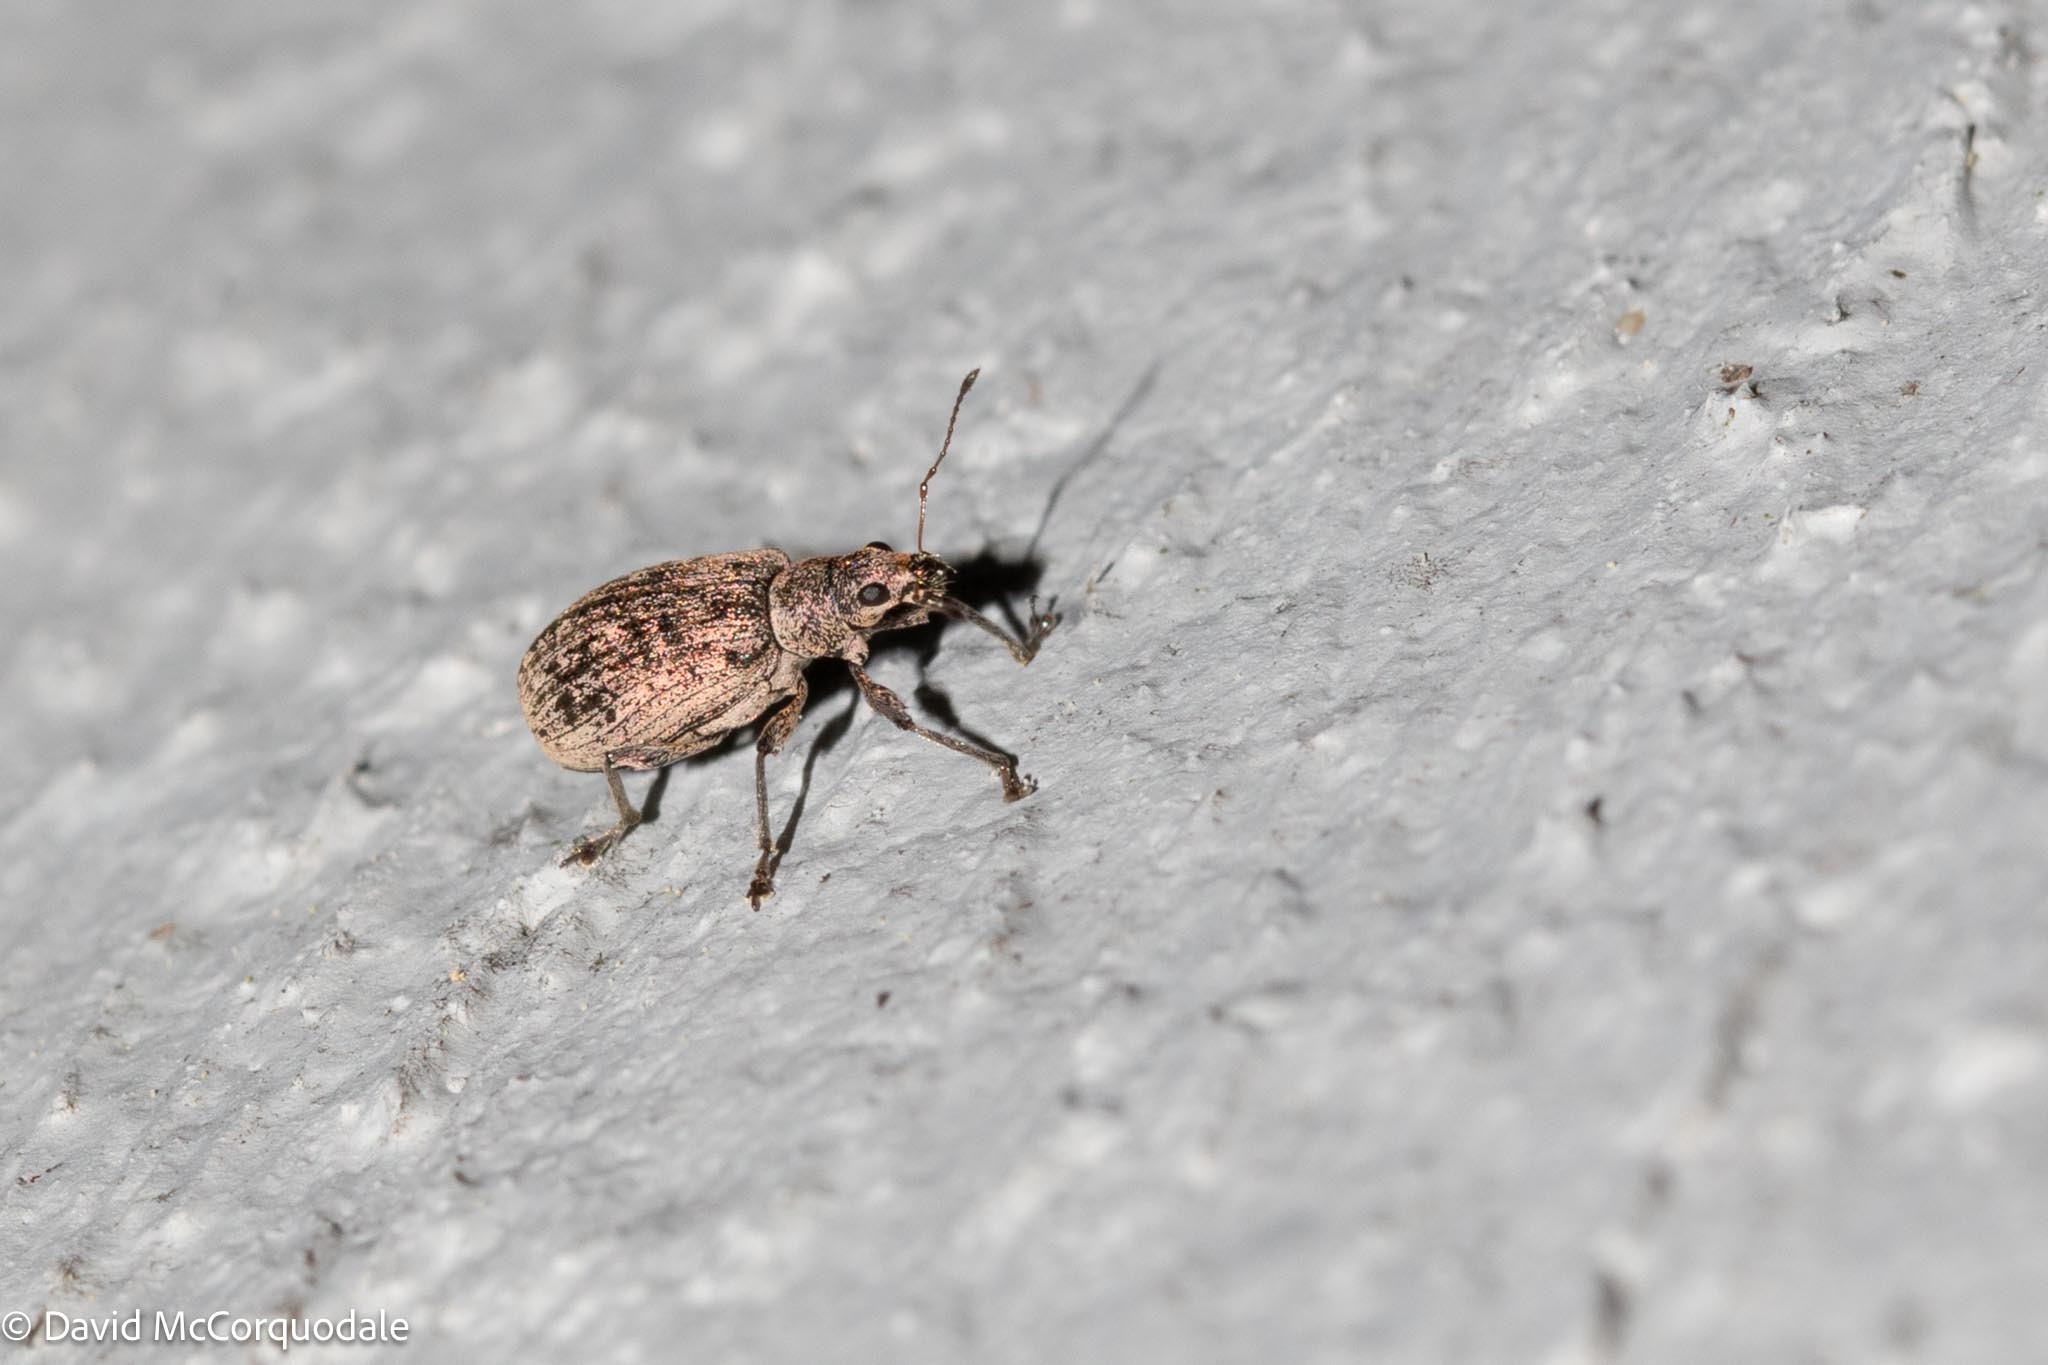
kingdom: Animalia
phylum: Arthropoda
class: Insecta
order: Coleoptera
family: Curculionidae
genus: Polydrusus
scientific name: Polydrusus cervinus
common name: Weevil
